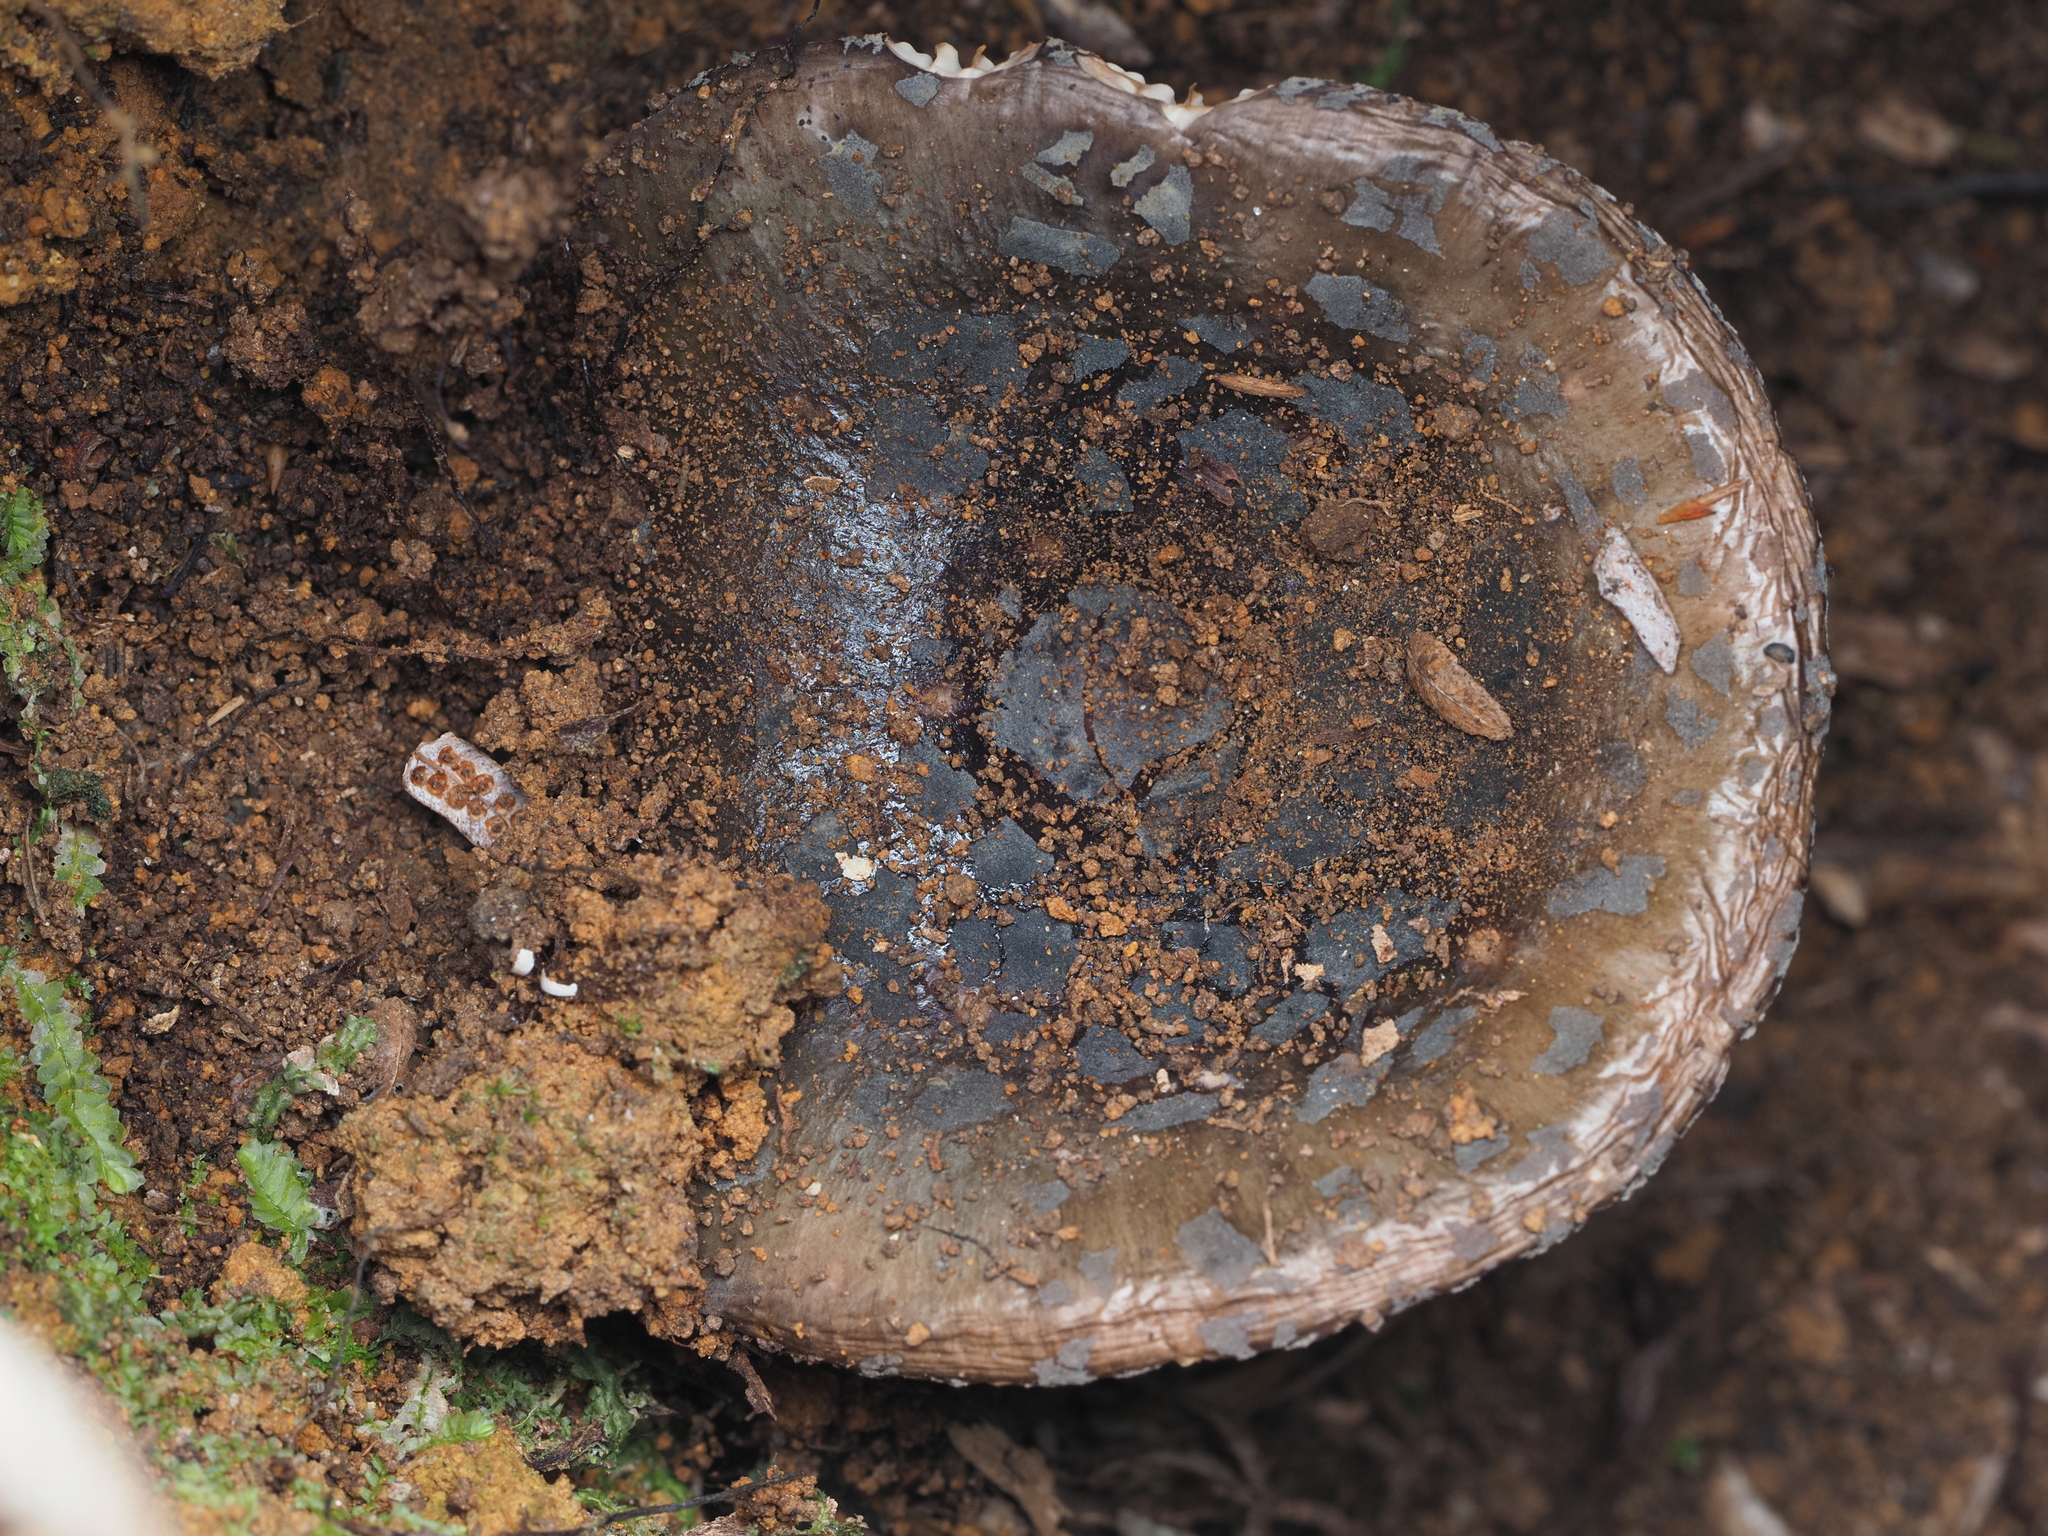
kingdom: Fungi
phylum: Basidiomycota
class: Agaricomycetes
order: Russulales
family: Russulaceae
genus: Russula
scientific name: Russula griseoviridis
